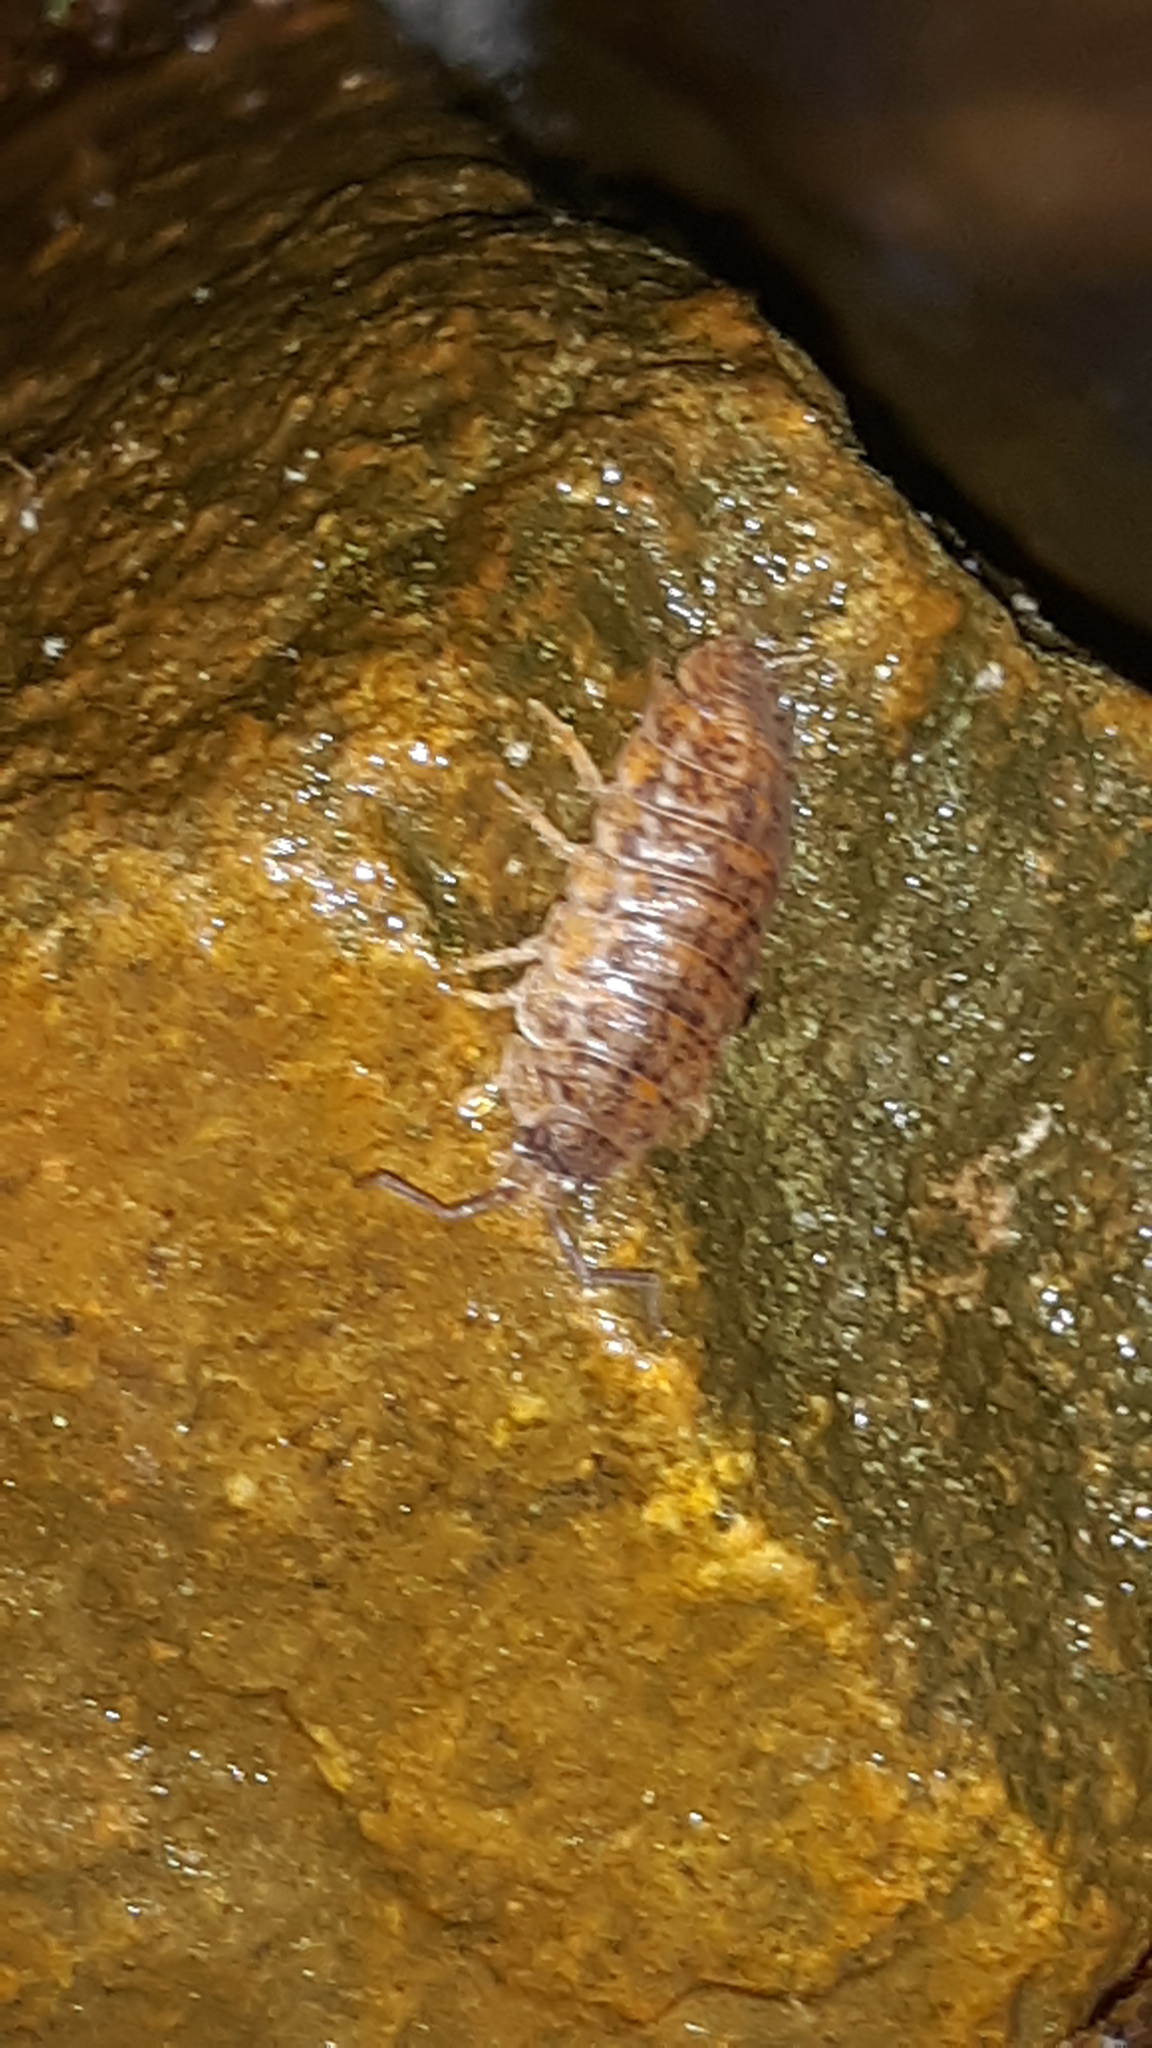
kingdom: Animalia
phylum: Arthropoda
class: Malacostraca
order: Isopoda
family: Trachelipodidae
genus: Trachelipus
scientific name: Trachelipus rathkii
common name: Isopod
